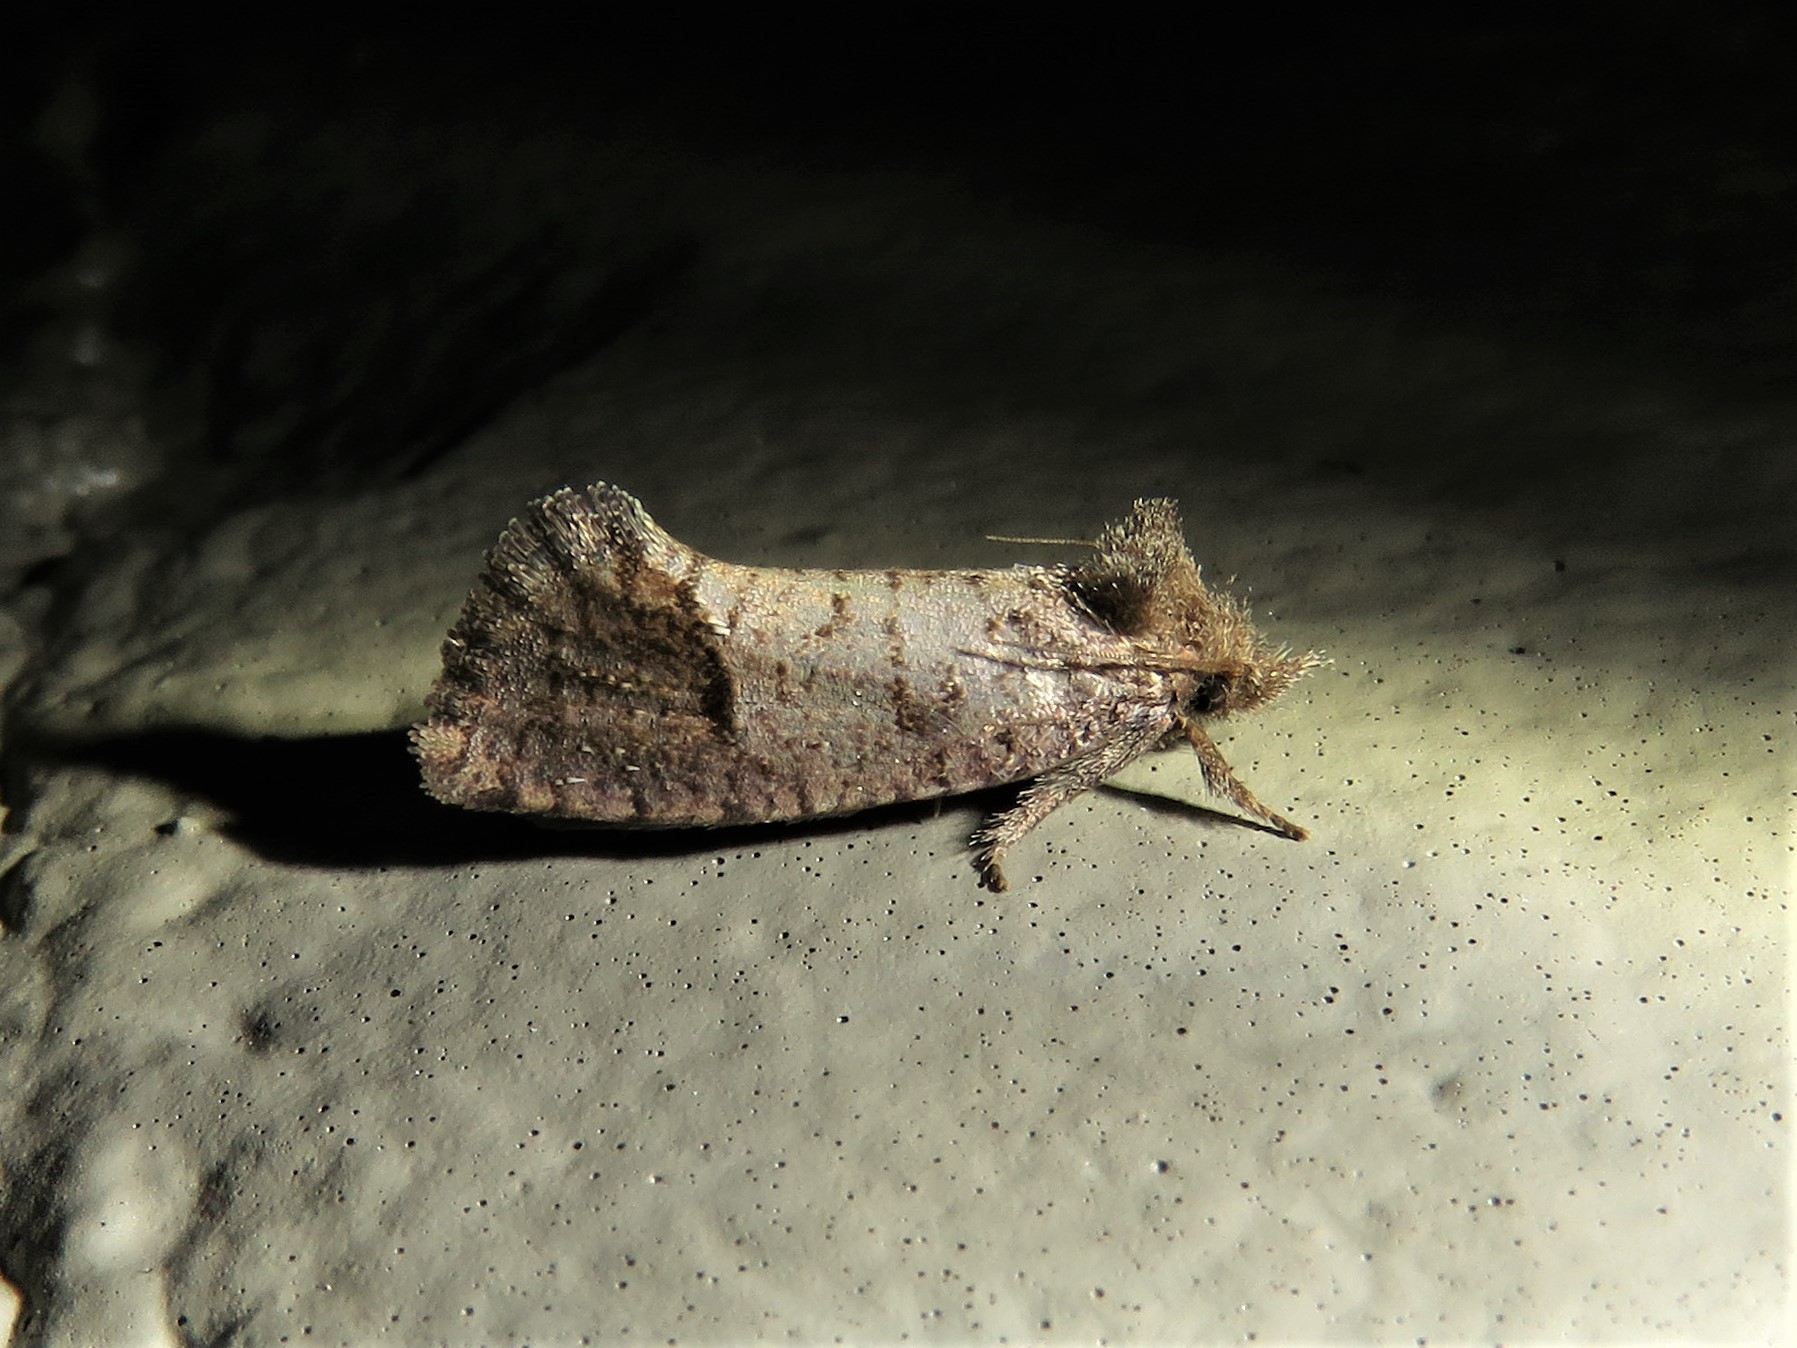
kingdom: Animalia
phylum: Arthropoda
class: Insecta
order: Lepidoptera
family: Tineidae
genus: Acrolophus
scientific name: Acrolophus texanella
